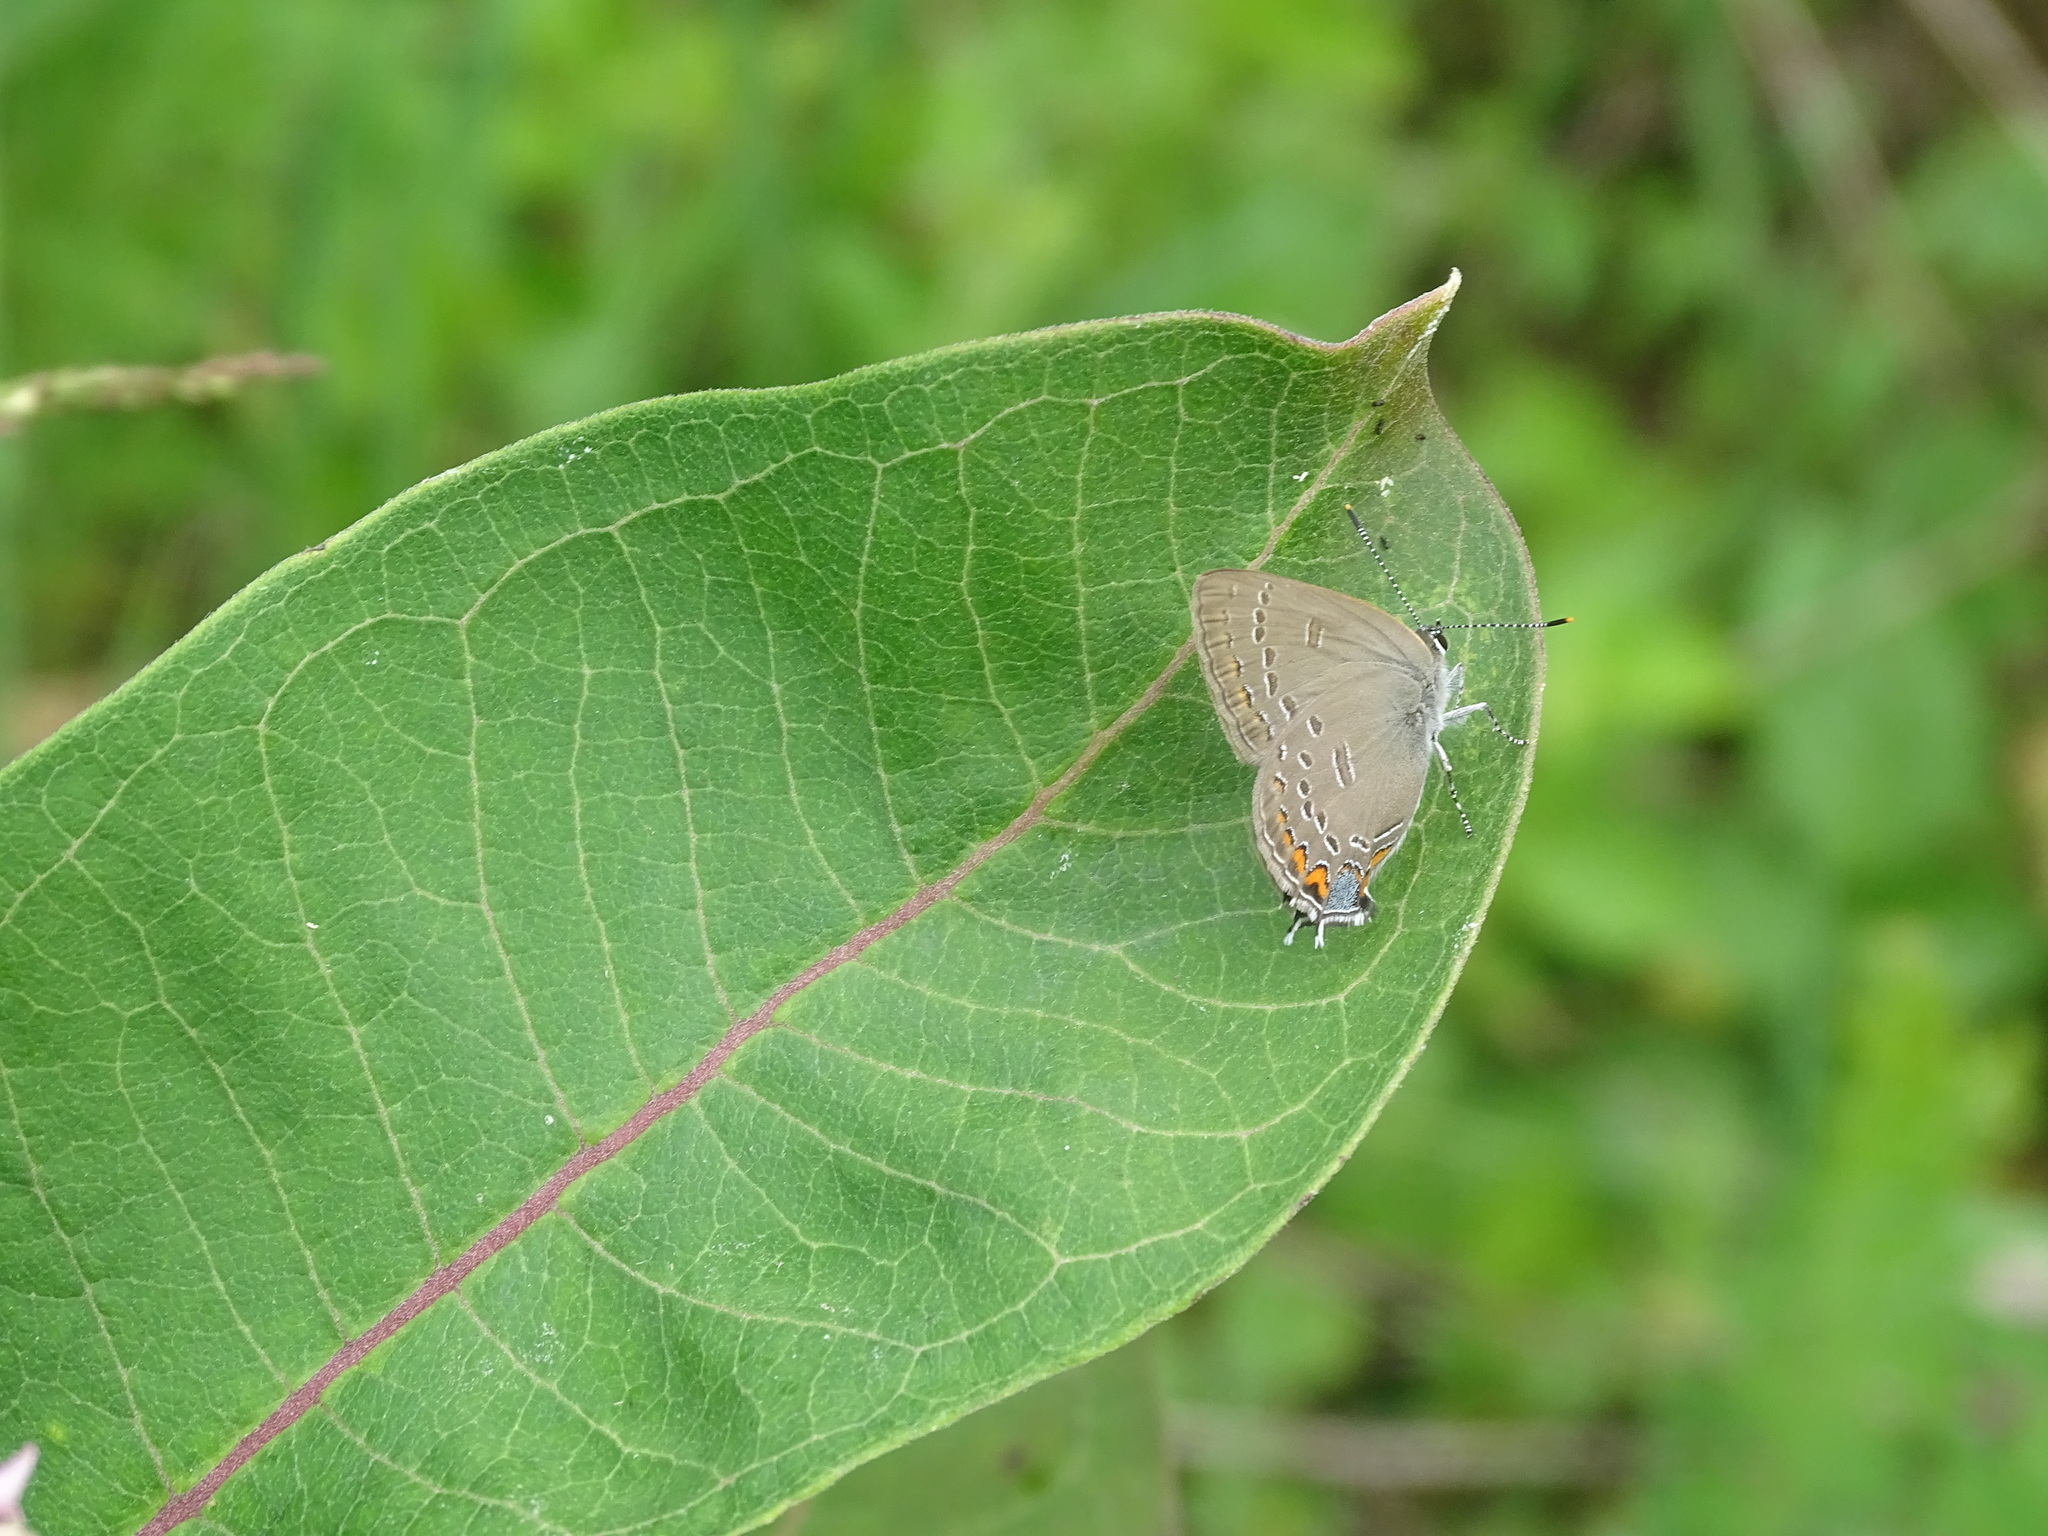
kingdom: Animalia
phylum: Arthropoda
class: Insecta
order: Lepidoptera
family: Lycaenidae
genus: Satyrium
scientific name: Satyrium edwardsii
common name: Edwards' hairstreak
